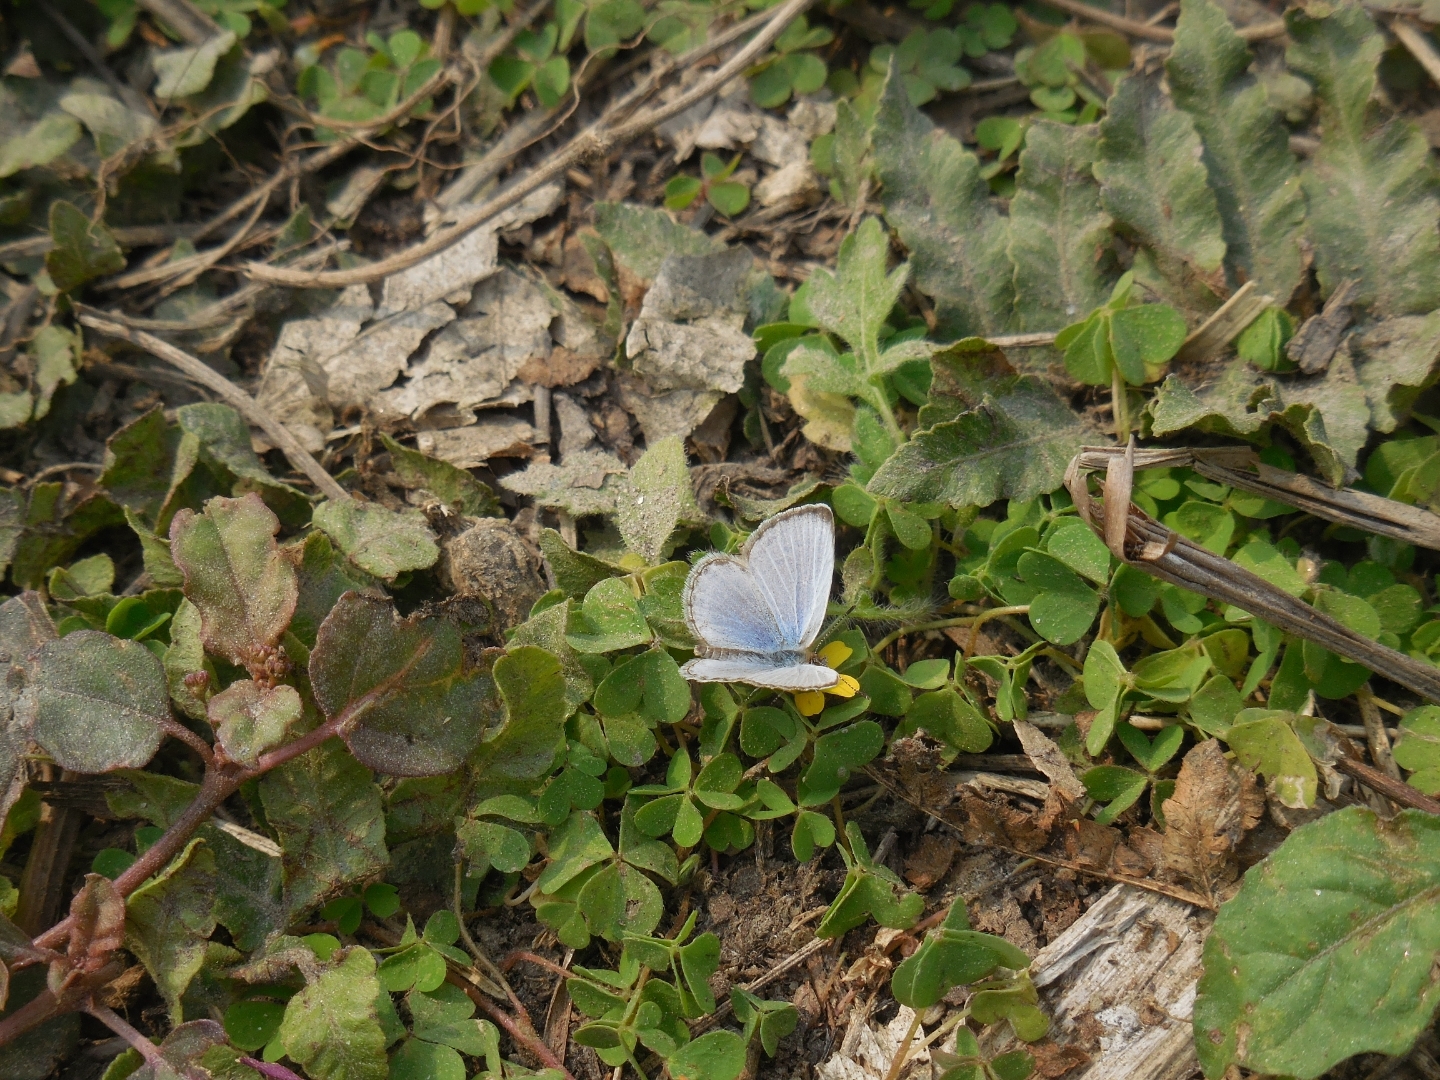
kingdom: Animalia
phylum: Arthropoda
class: Insecta
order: Lepidoptera
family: Lycaenidae
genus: Pseudozizeeria
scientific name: Pseudozizeeria maha
